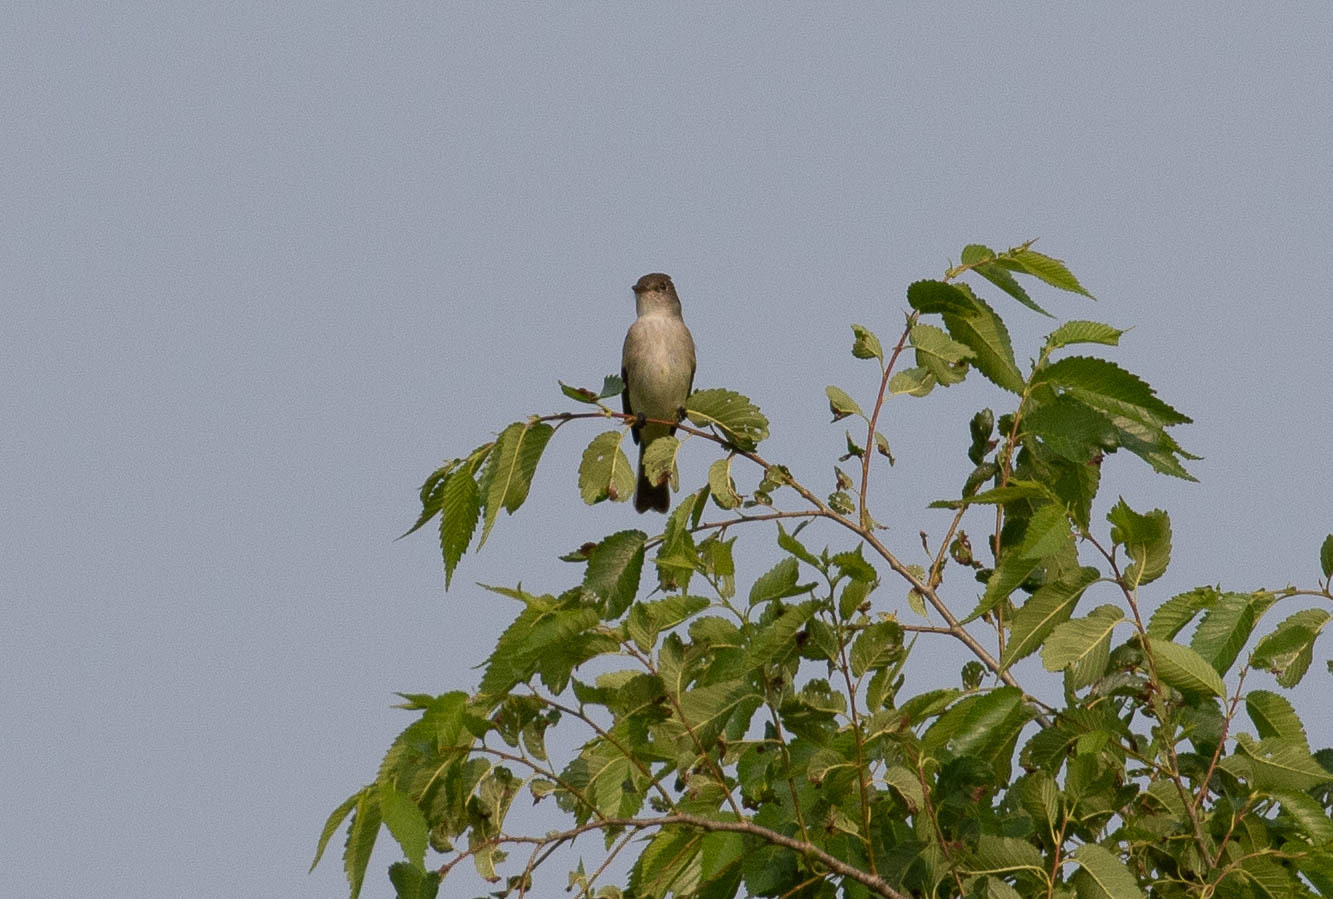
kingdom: Animalia
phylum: Chordata
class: Aves
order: Passeriformes
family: Tyrannidae
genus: Empidonax
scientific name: Empidonax traillii
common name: Willow flycatcher
